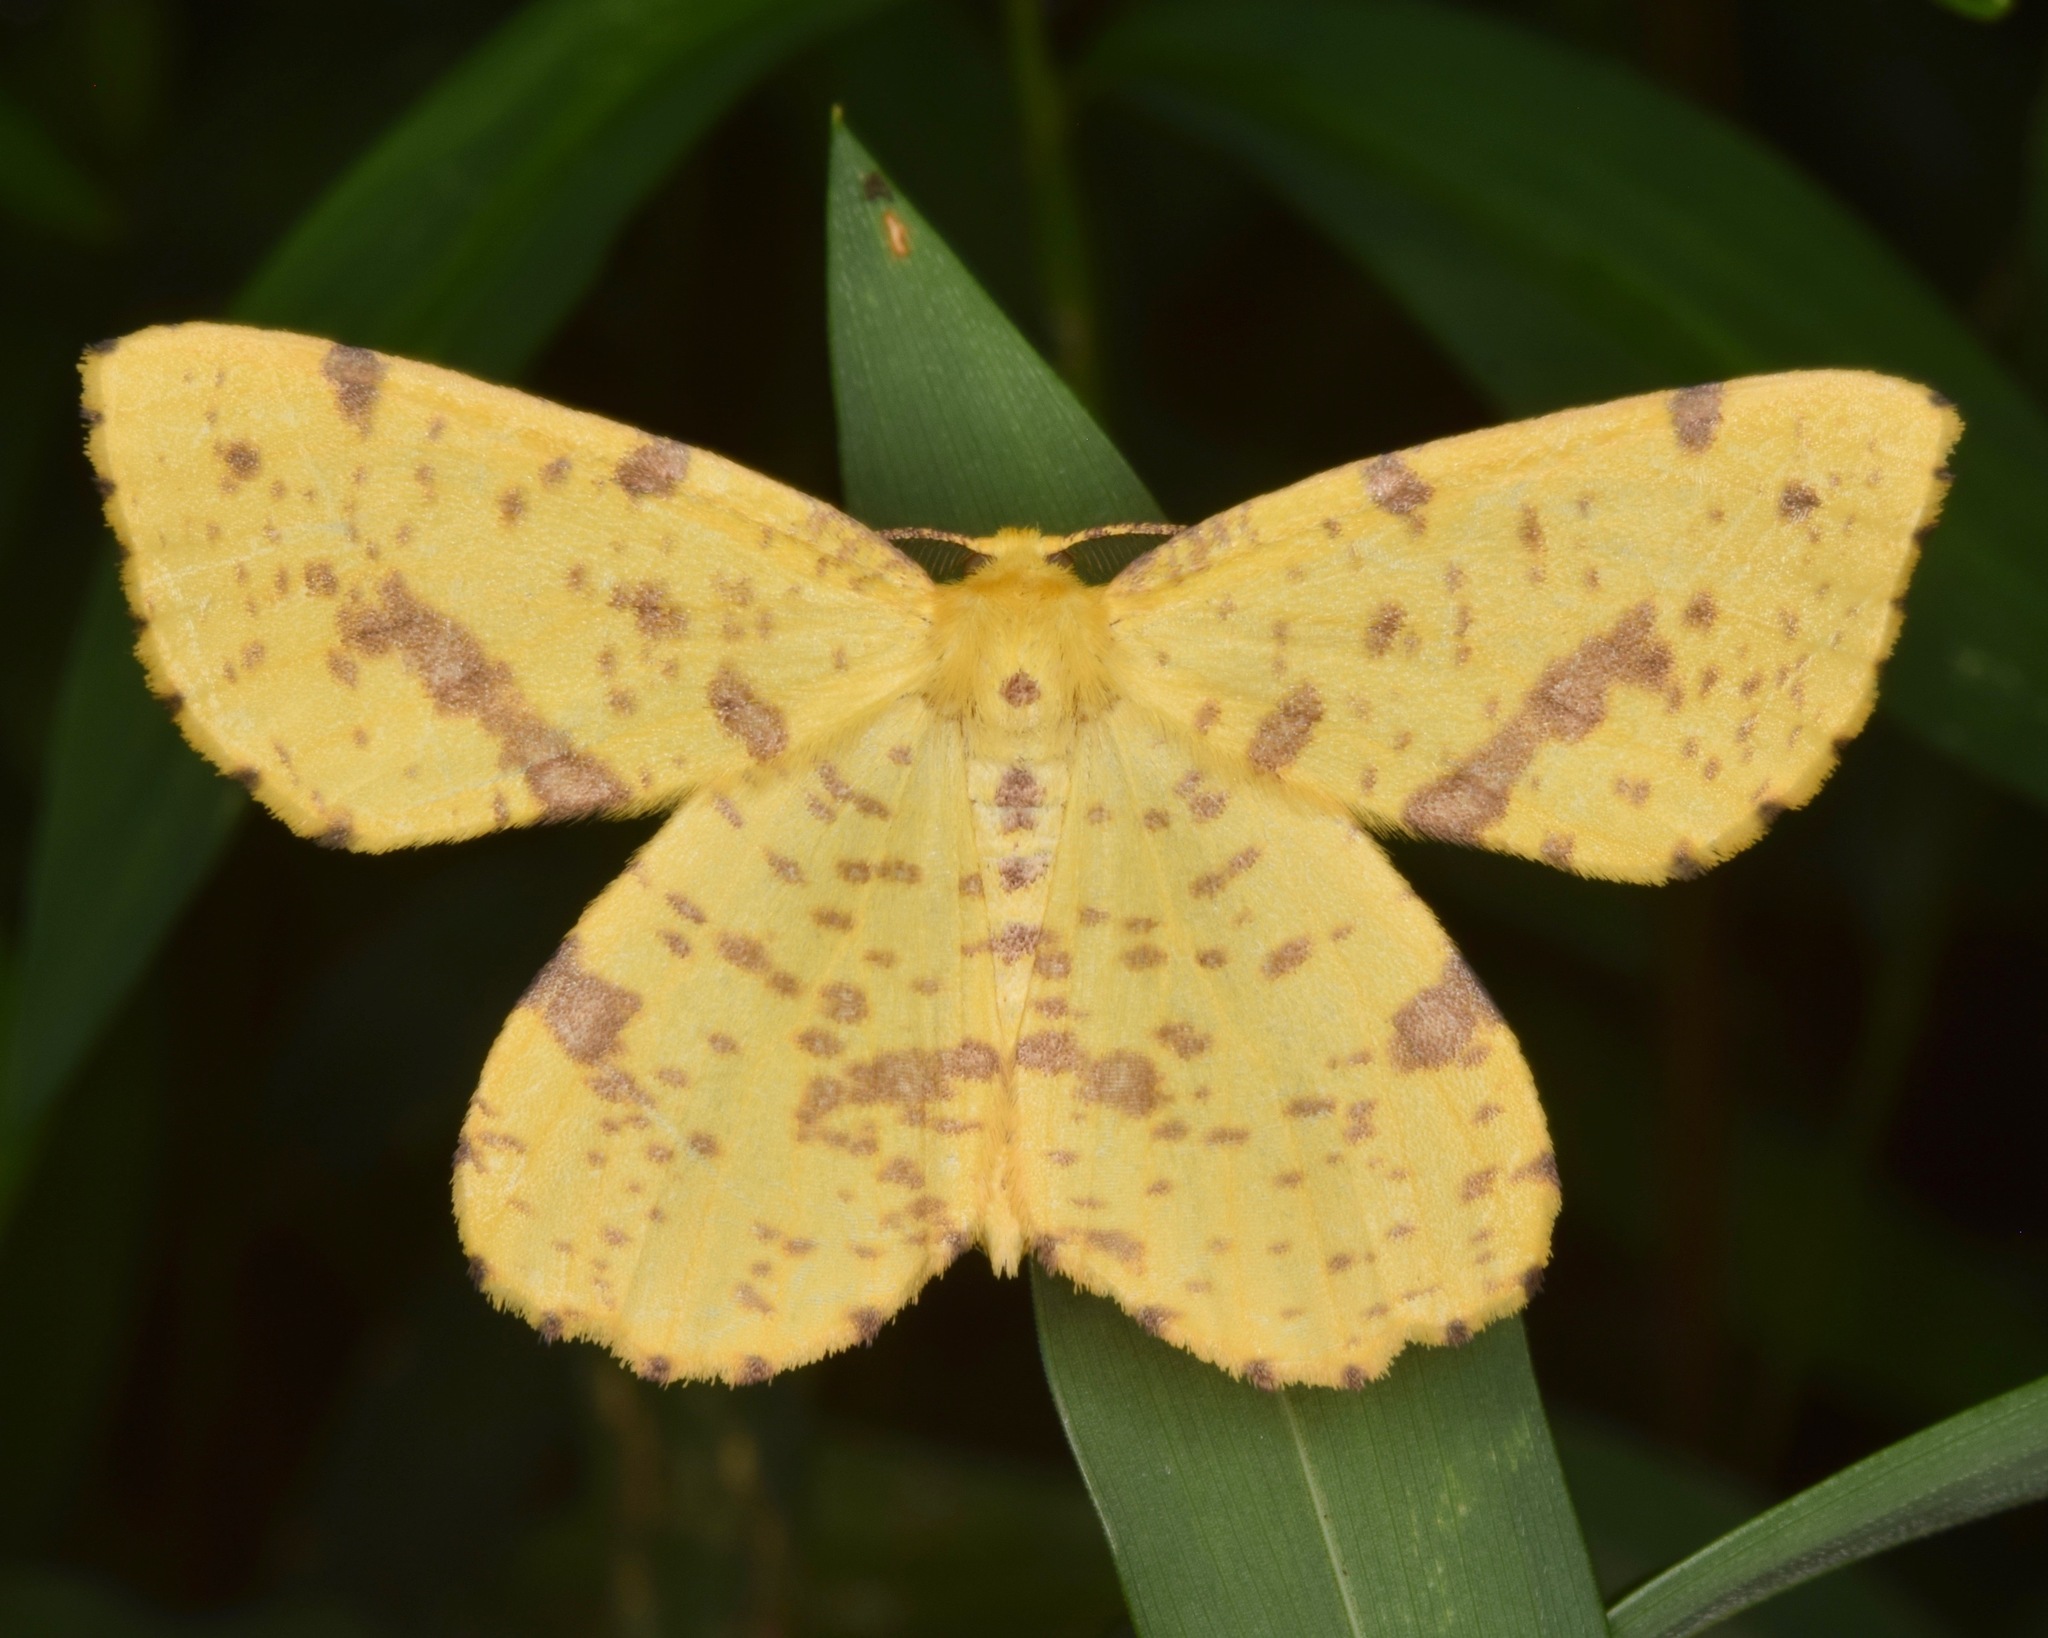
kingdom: Animalia
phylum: Arthropoda
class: Insecta
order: Lepidoptera
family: Geometridae
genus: Xanthotype
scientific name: Xanthotype
